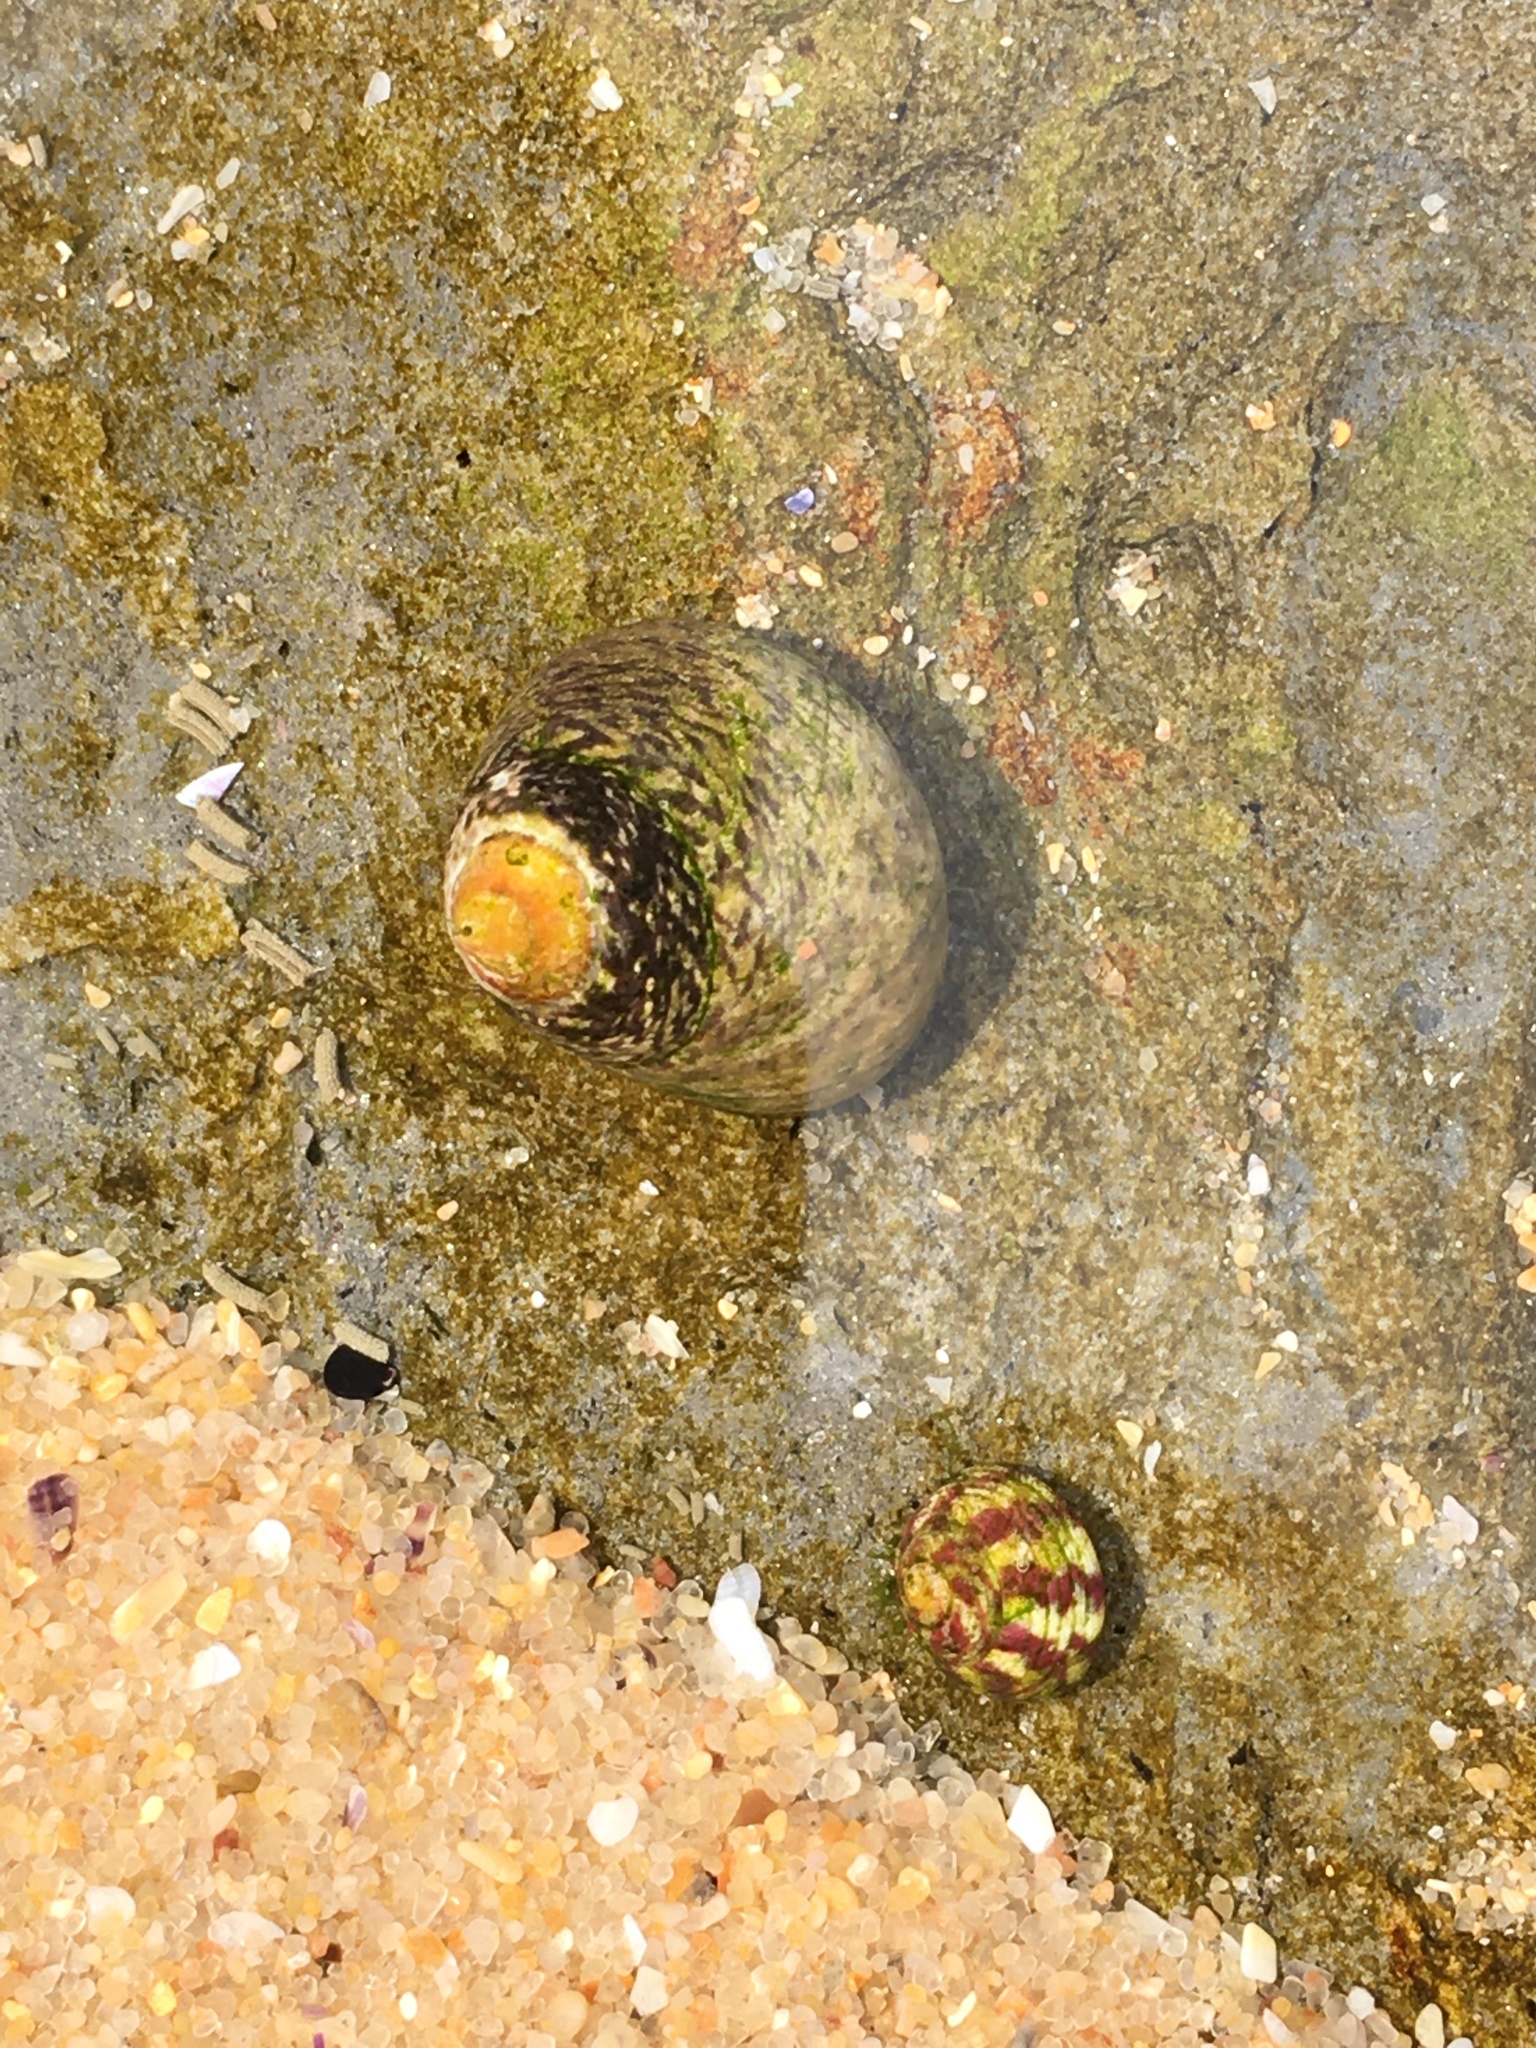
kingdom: Animalia
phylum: Mollusca
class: Gastropoda
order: Trochida
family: Trochidae
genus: Phorcus
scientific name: Phorcus lineatus
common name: Toothed top shell
